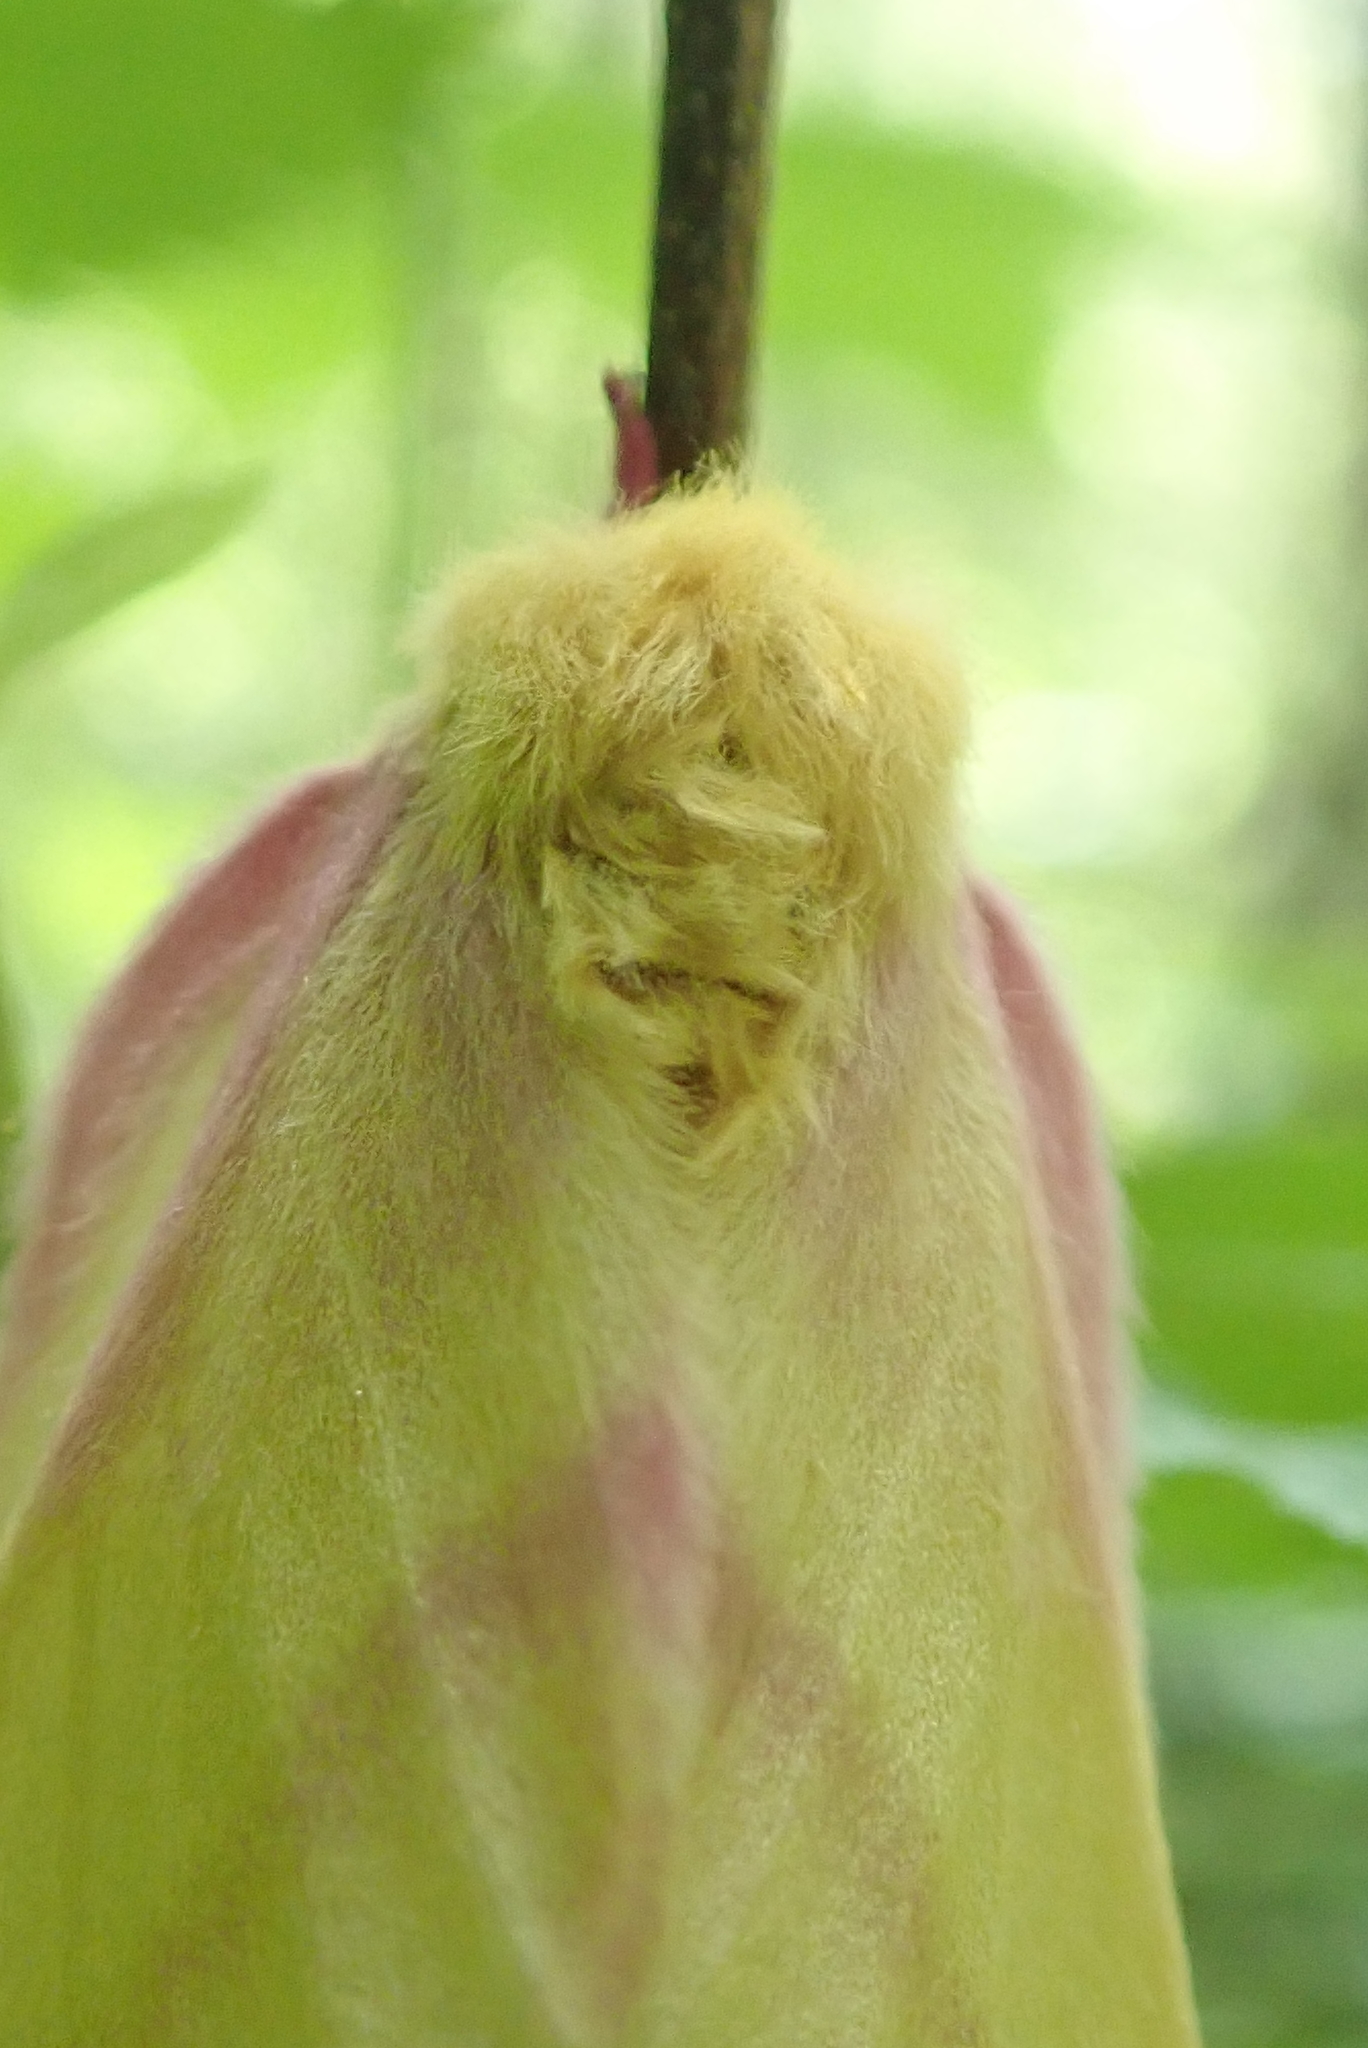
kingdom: Animalia
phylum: Arthropoda
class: Insecta
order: Lepidoptera
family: Saturniidae
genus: Dryocampa
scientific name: Dryocampa rubicunda
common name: Rosy maple moth
